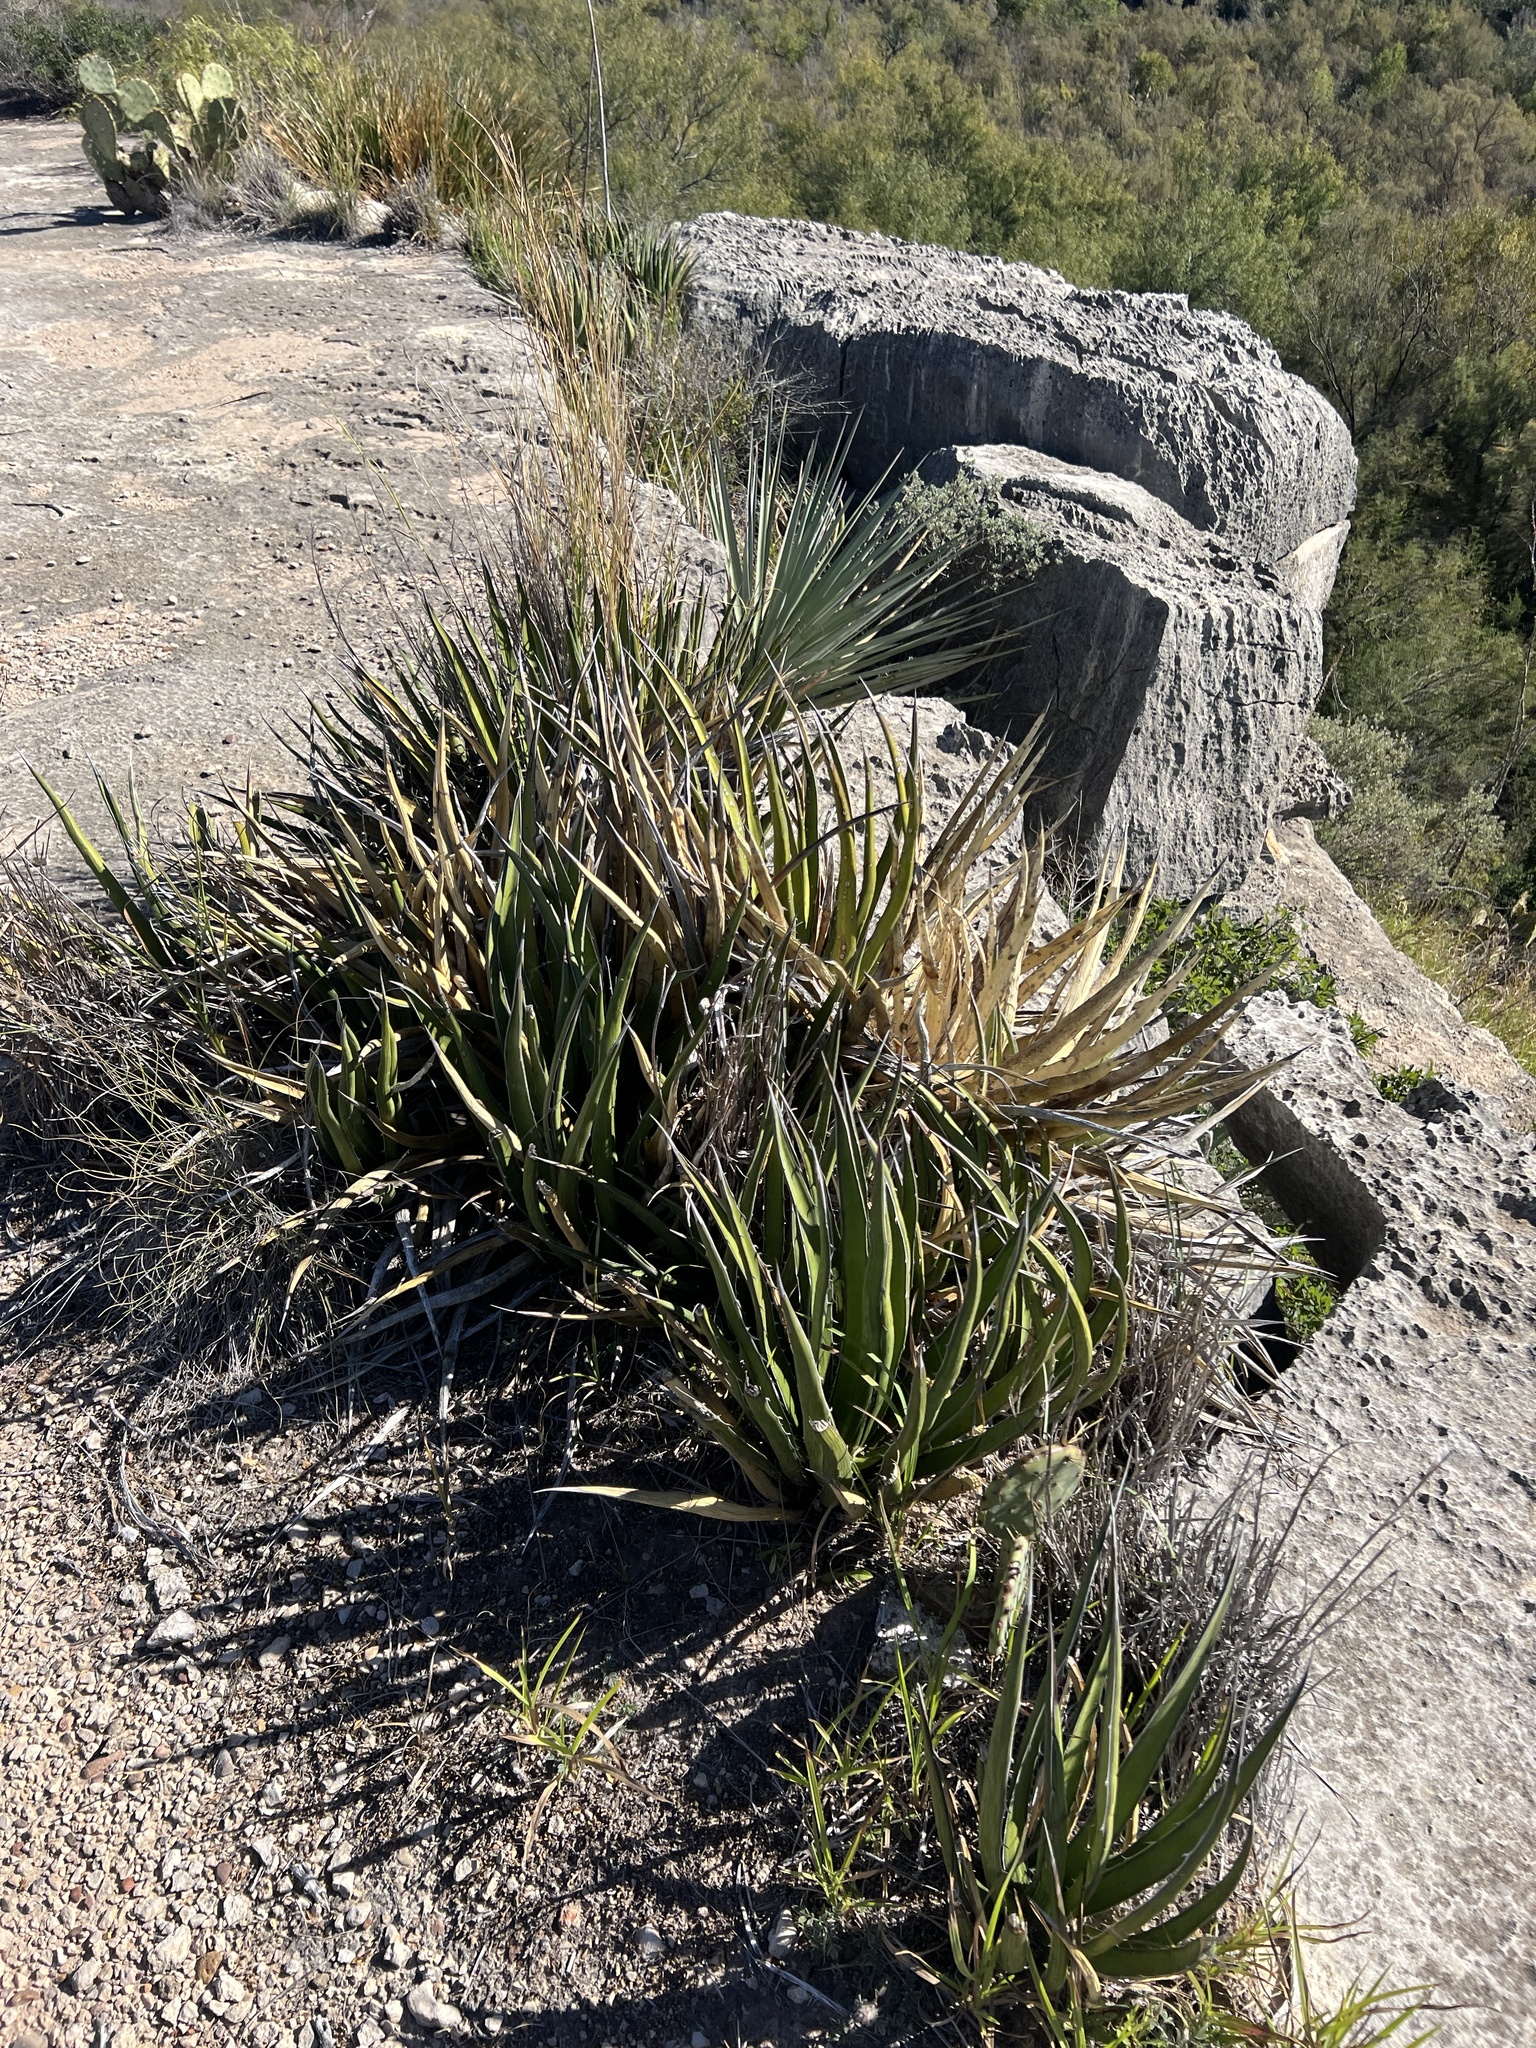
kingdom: Plantae
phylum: Tracheophyta
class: Liliopsida
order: Asparagales
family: Asparagaceae
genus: Agave
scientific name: Agave lechuguilla
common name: Lecheguilla agave
